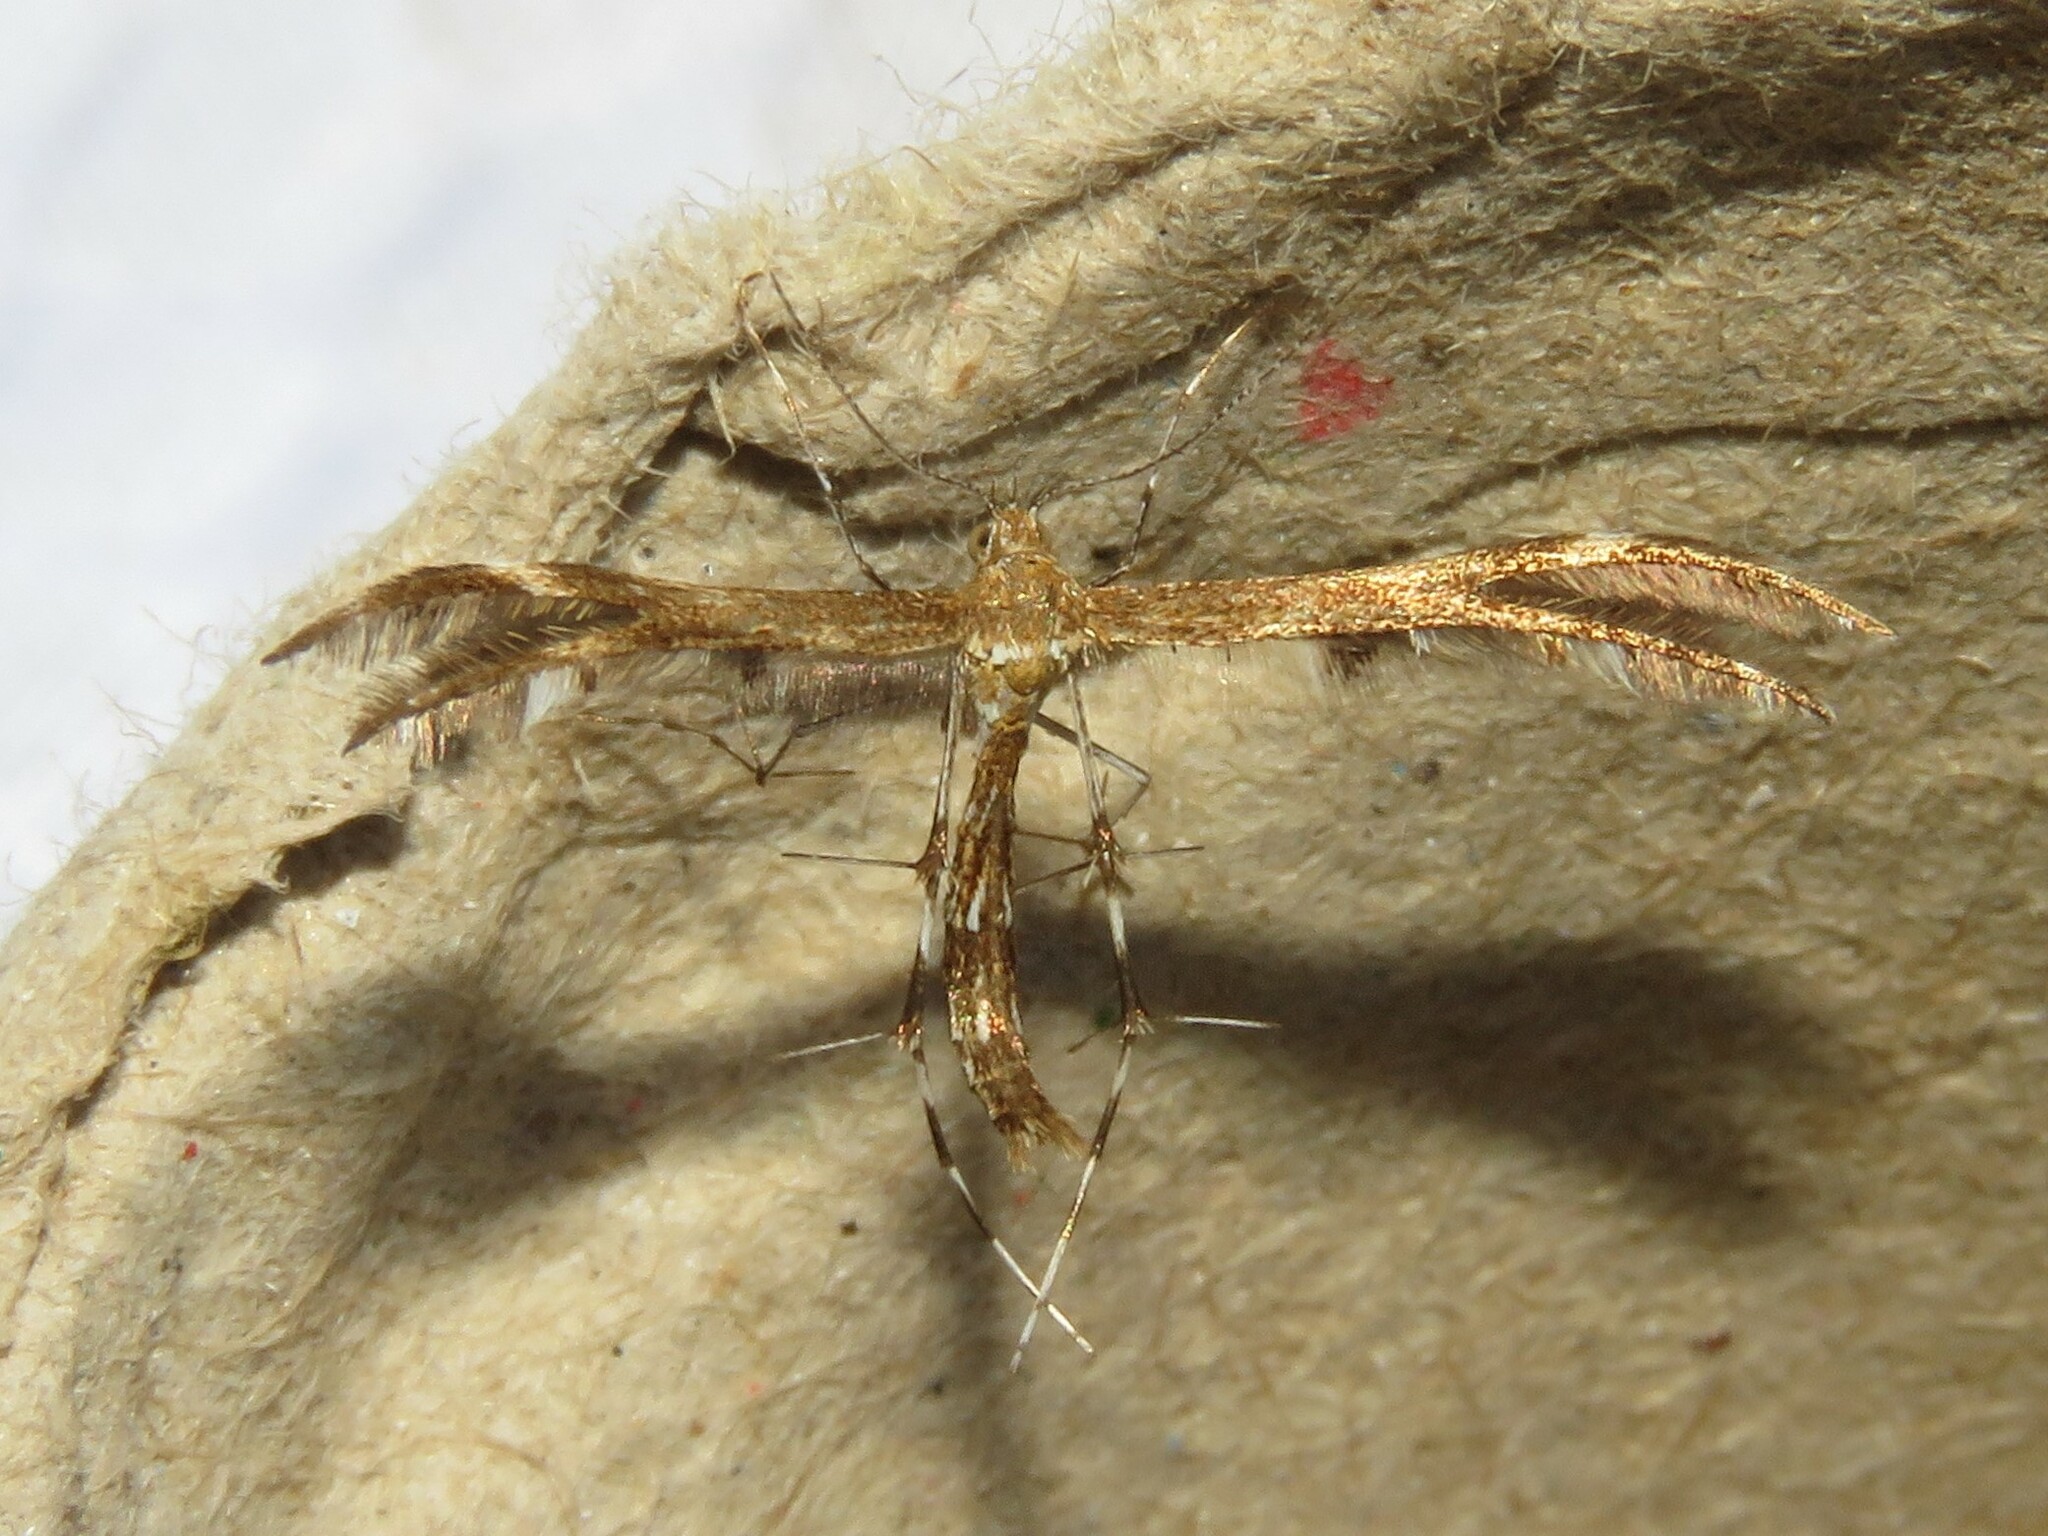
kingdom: Animalia
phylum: Arthropoda
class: Insecta
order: Lepidoptera
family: Pterophoridae
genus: Dejongia
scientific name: Dejongia lobidactylus
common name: Lobed plume moth
